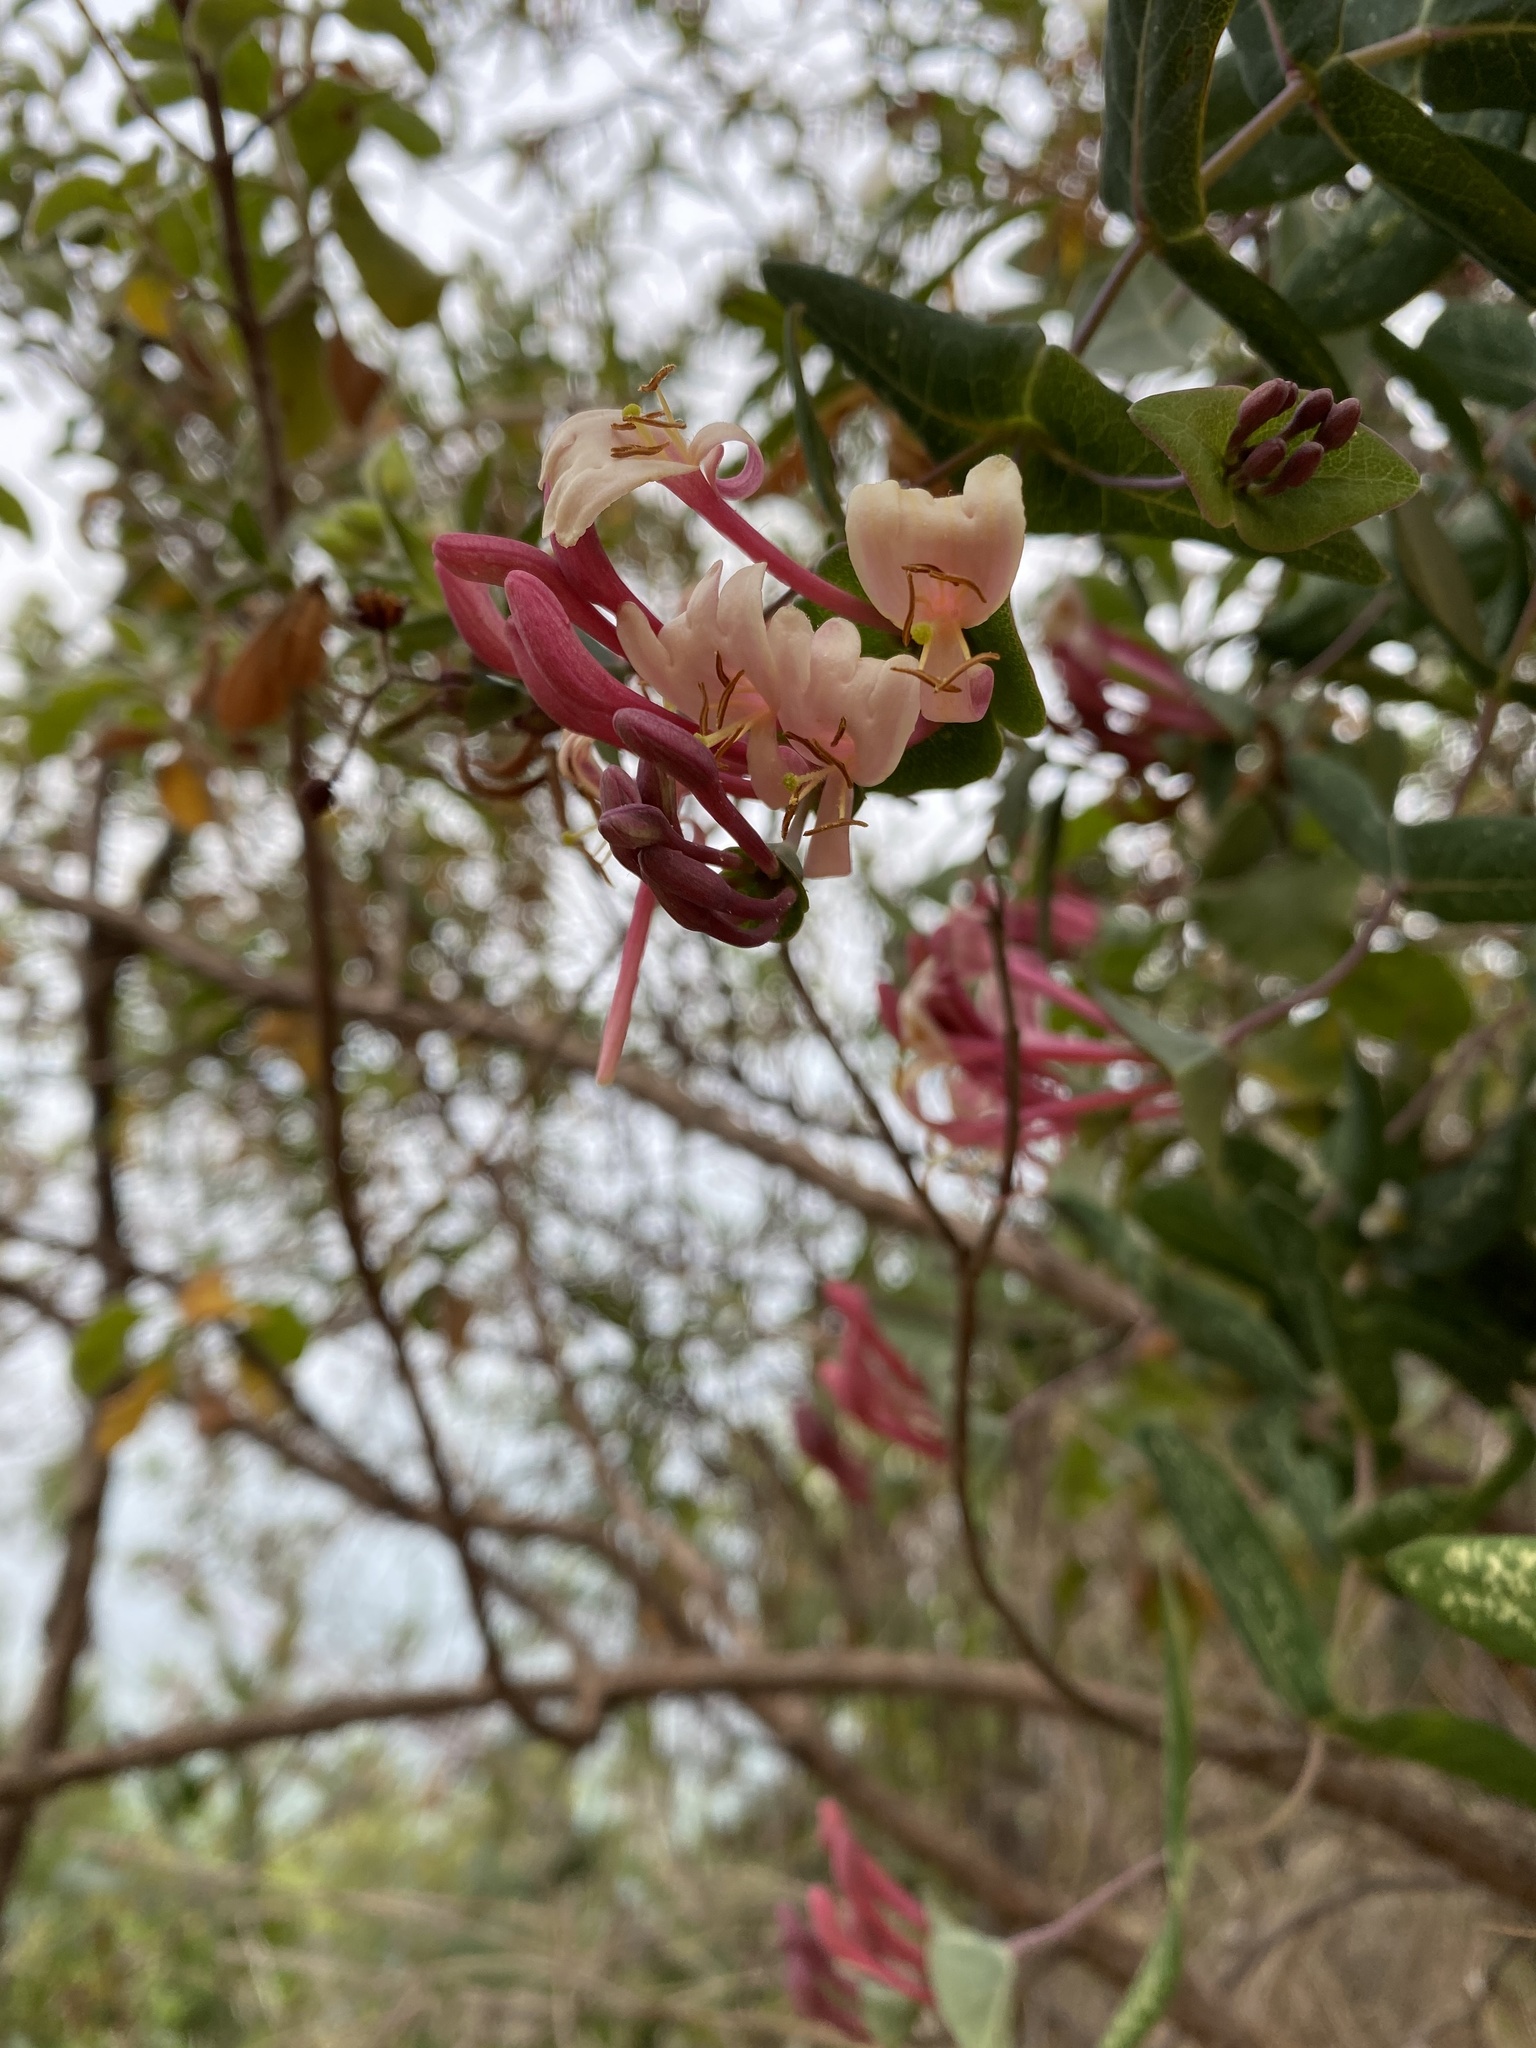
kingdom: Plantae
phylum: Tracheophyta
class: Magnoliopsida
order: Dipsacales
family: Caprifoliaceae
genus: Lonicera
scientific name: Lonicera implexa
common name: Minorca honeysuckle
